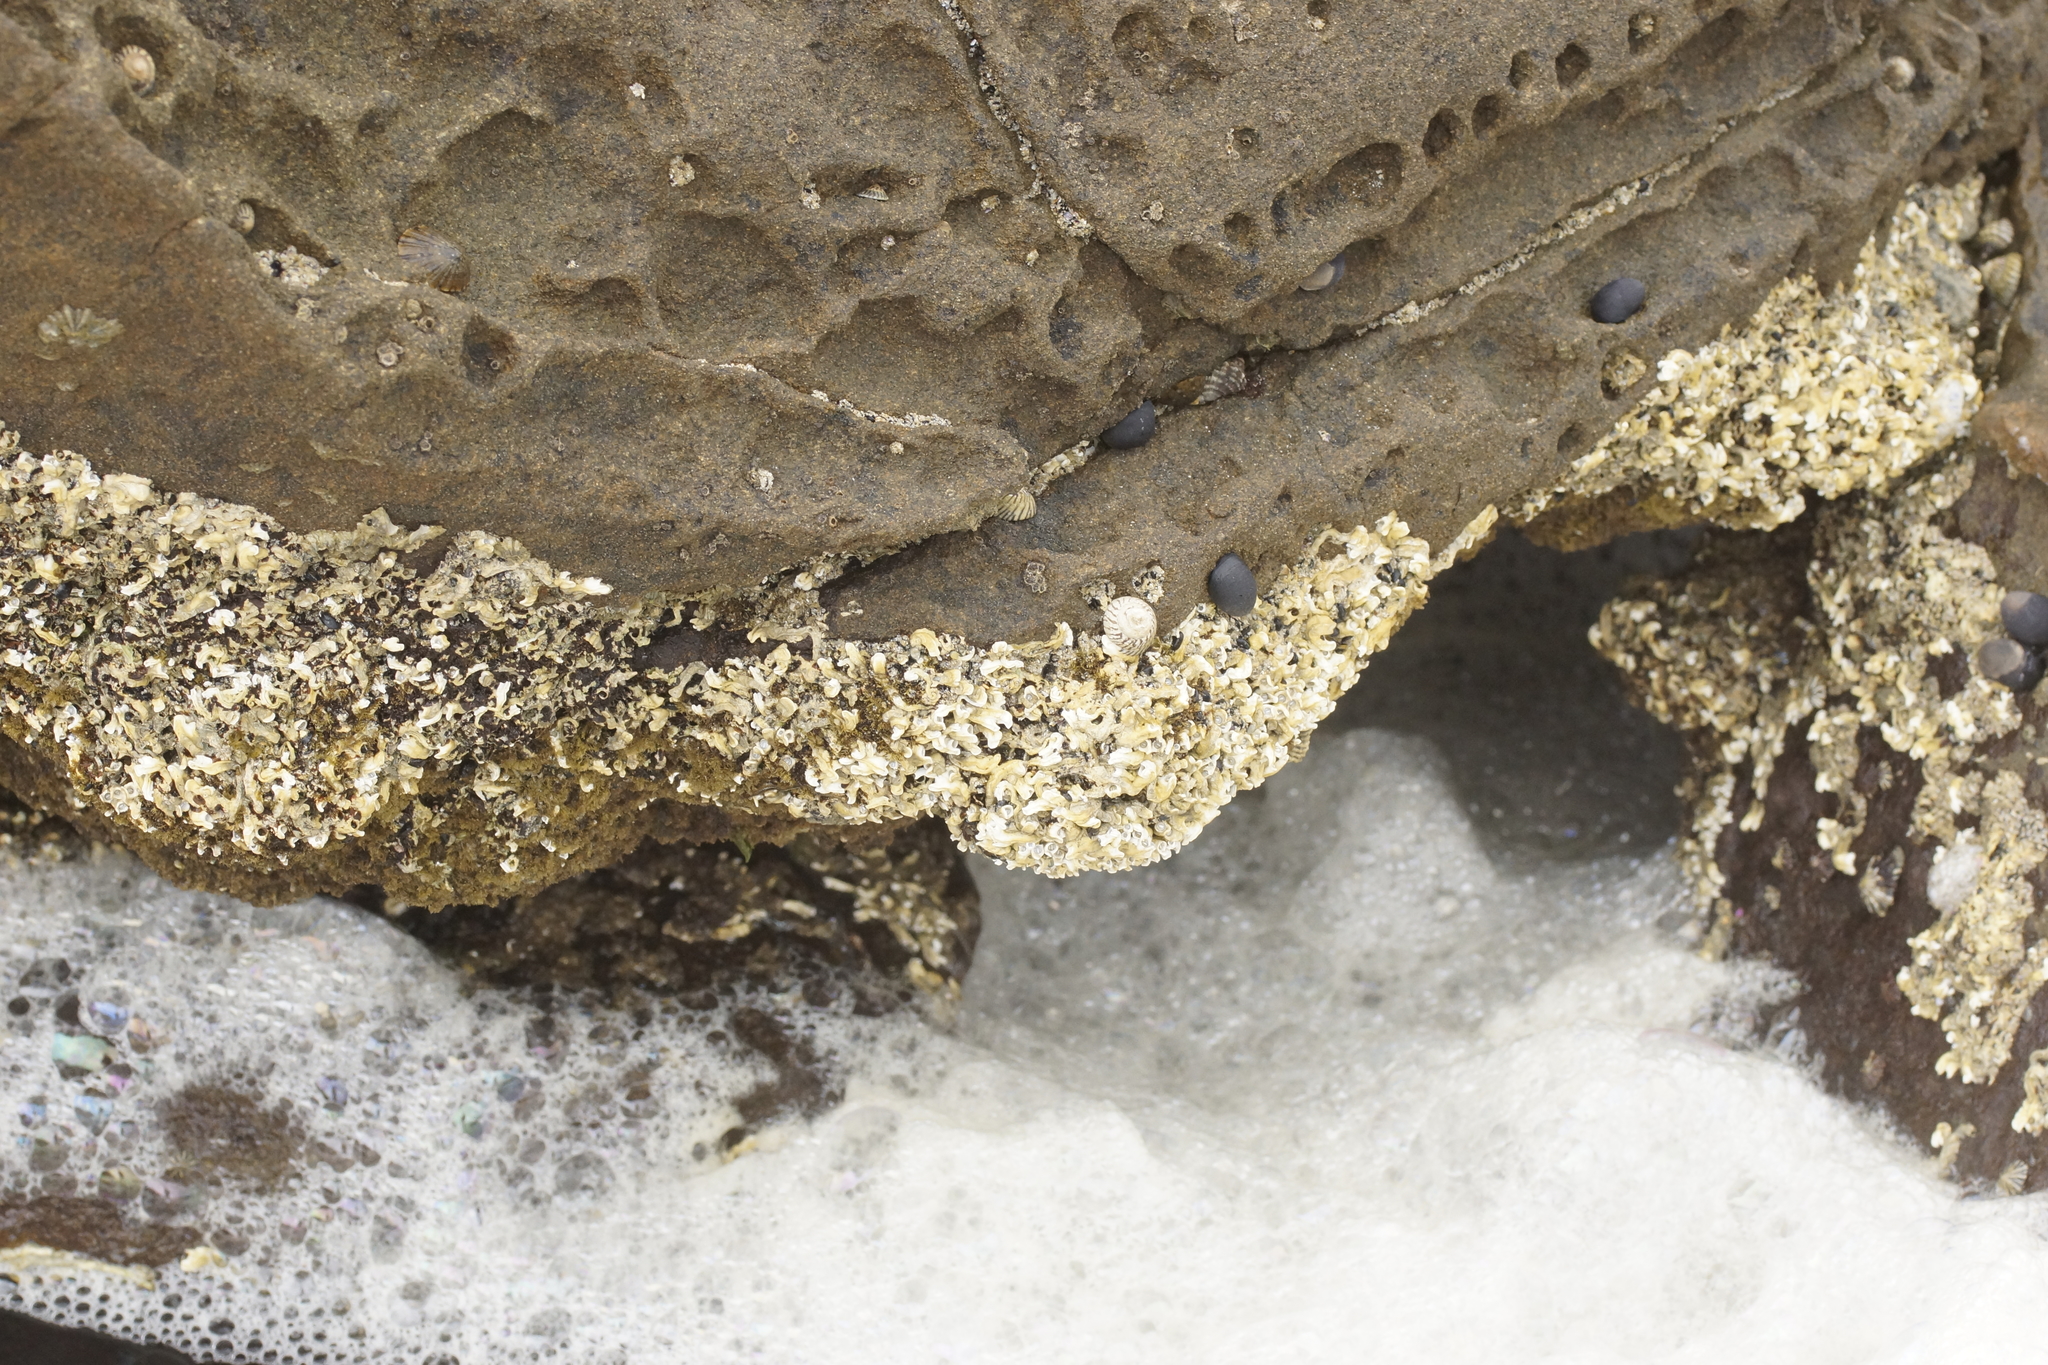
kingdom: Animalia
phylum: Annelida
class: Polychaeta
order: Sabellida
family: Serpulidae
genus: Galeolaria
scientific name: Galeolaria caespitosa
